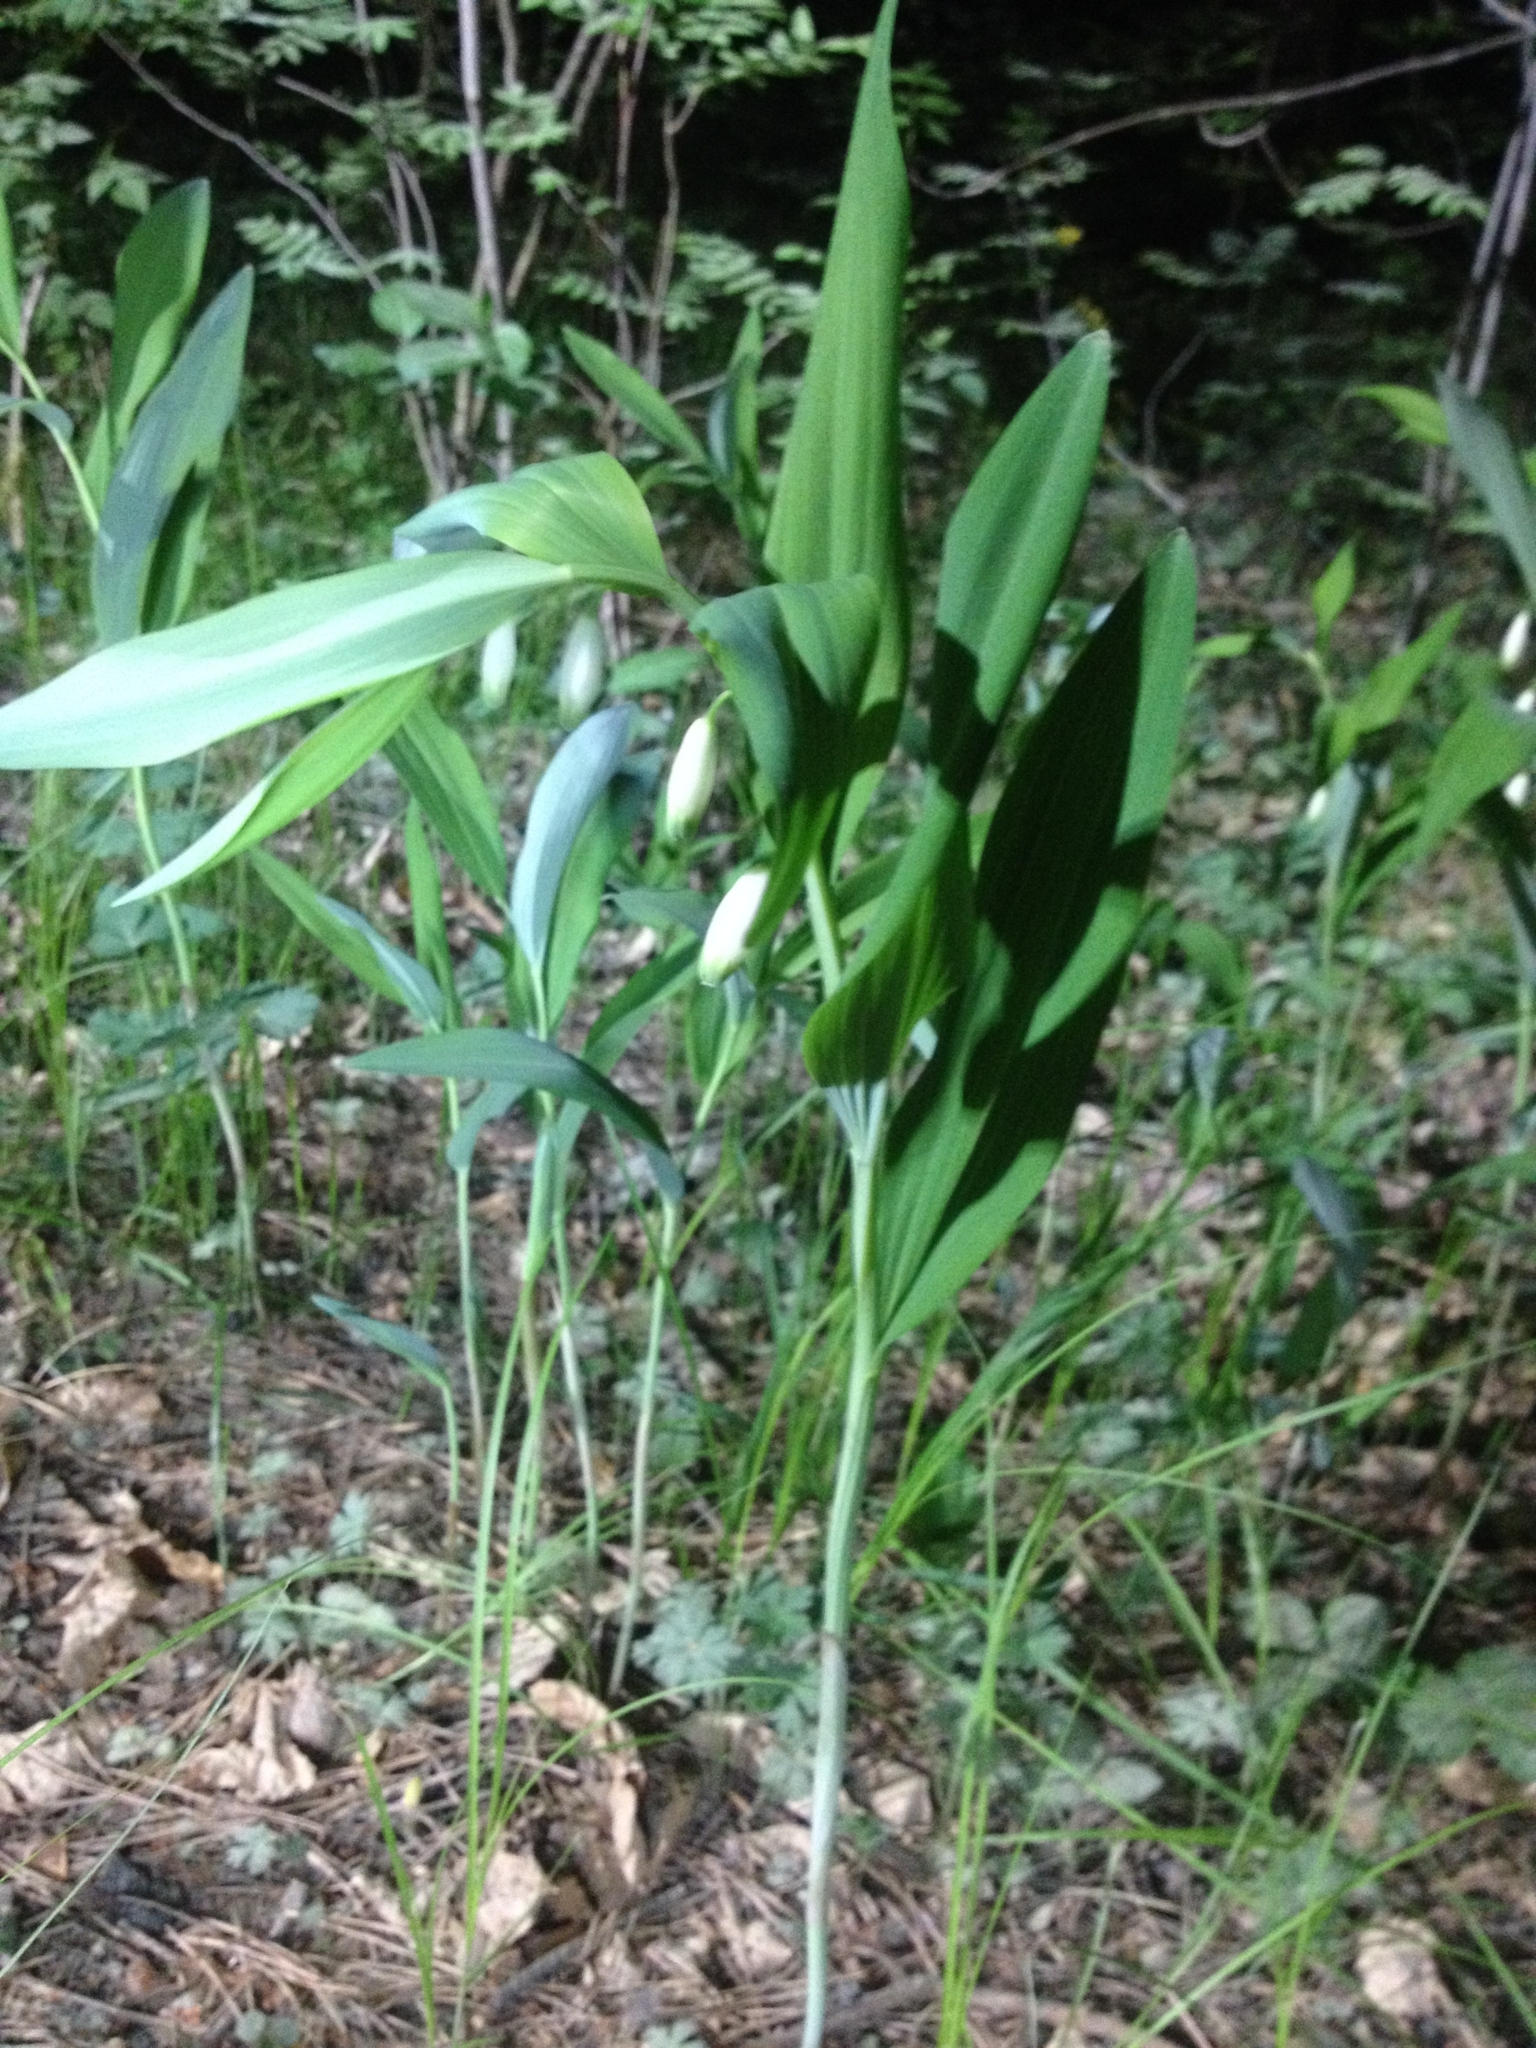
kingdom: Plantae
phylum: Tracheophyta
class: Liliopsida
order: Asparagales
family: Asparagaceae
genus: Polygonatum
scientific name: Polygonatum odoratum
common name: Angular solomon's-seal
